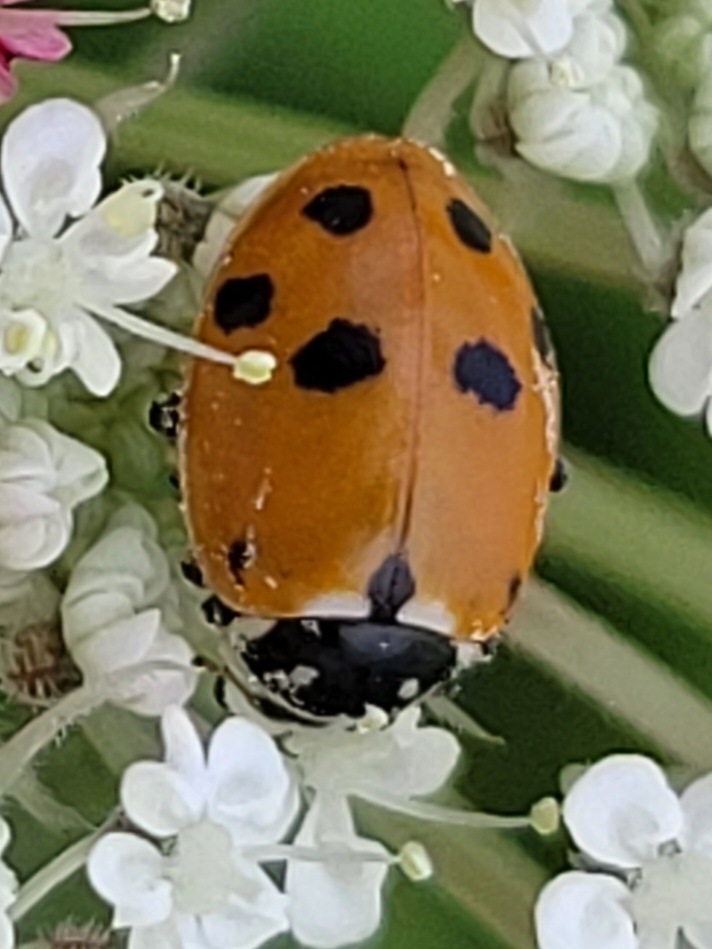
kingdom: Animalia
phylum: Arthropoda
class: Insecta
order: Coleoptera
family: Coccinellidae
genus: Hippodamia
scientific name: Hippodamia variegata
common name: Ladybird beetle
